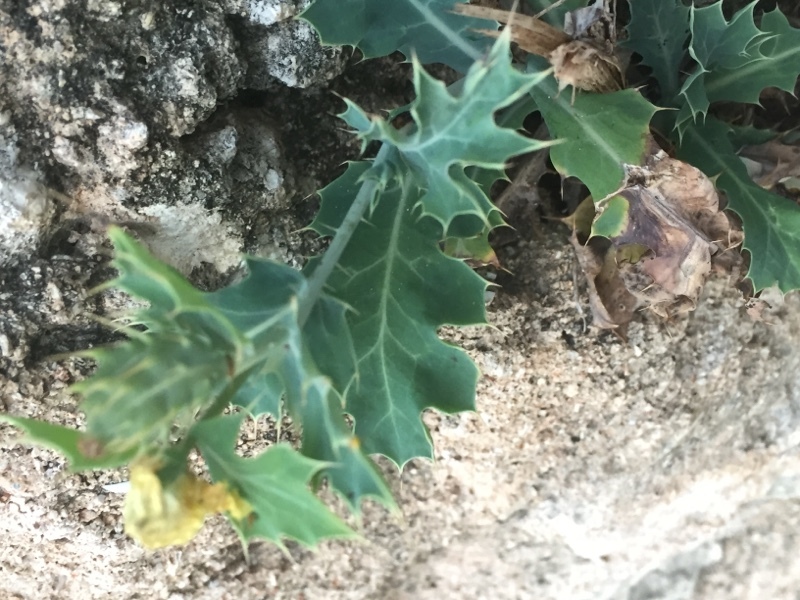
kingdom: Plantae
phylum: Tracheophyta
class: Magnoliopsida
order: Ranunculales
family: Papaveraceae
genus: Argemone
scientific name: Argemone mexicana
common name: Mexican poppy
